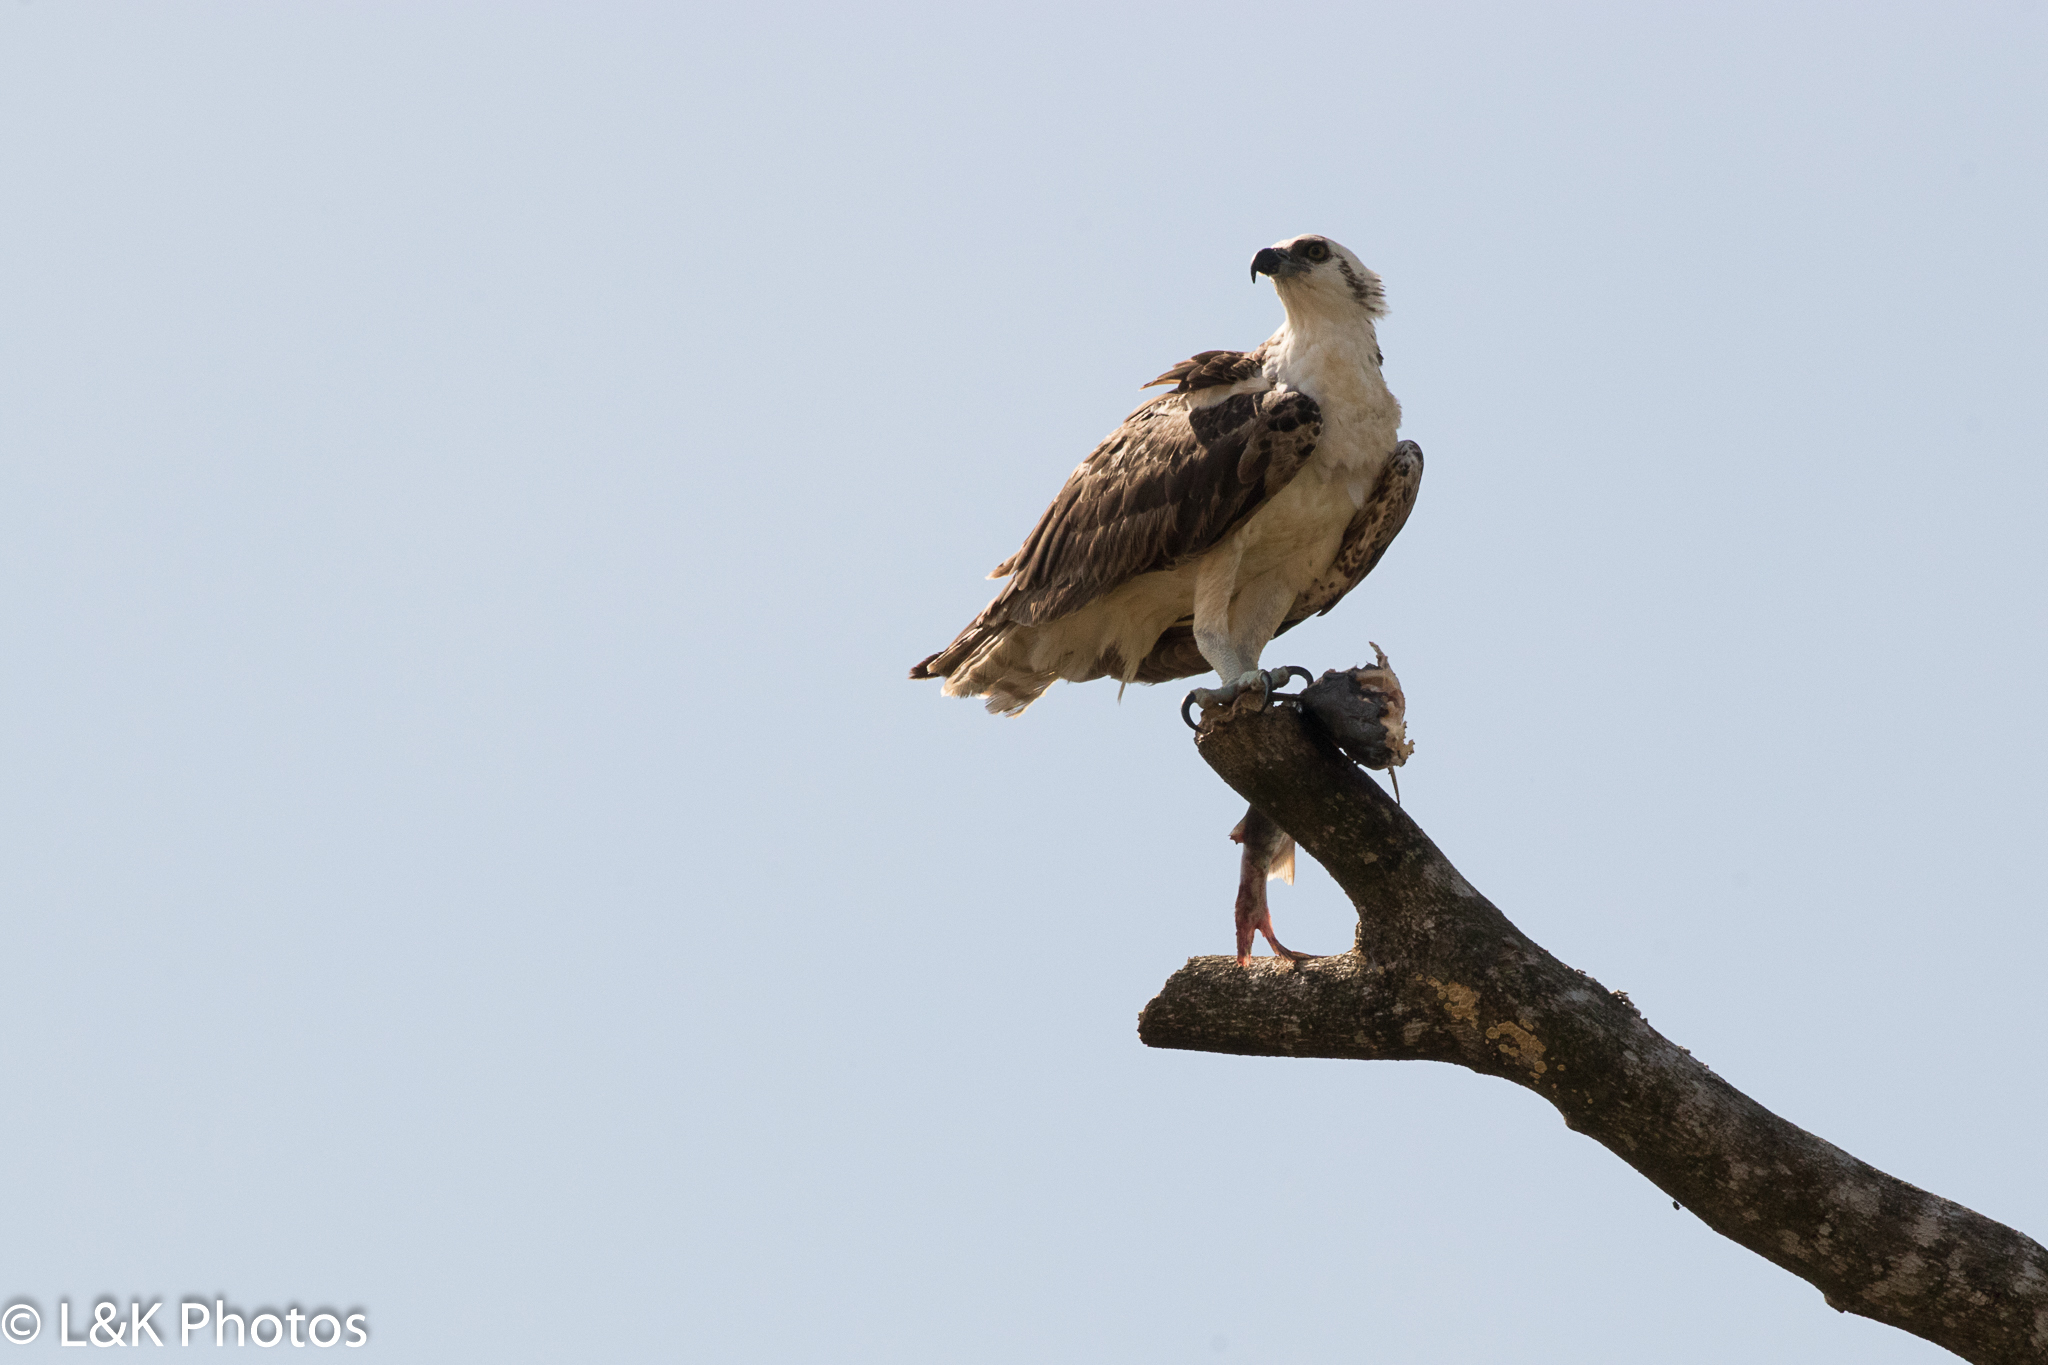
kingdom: Animalia
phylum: Chordata
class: Aves
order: Accipitriformes
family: Pandionidae
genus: Pandion
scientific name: Pandion haliaetus
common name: Osprey
